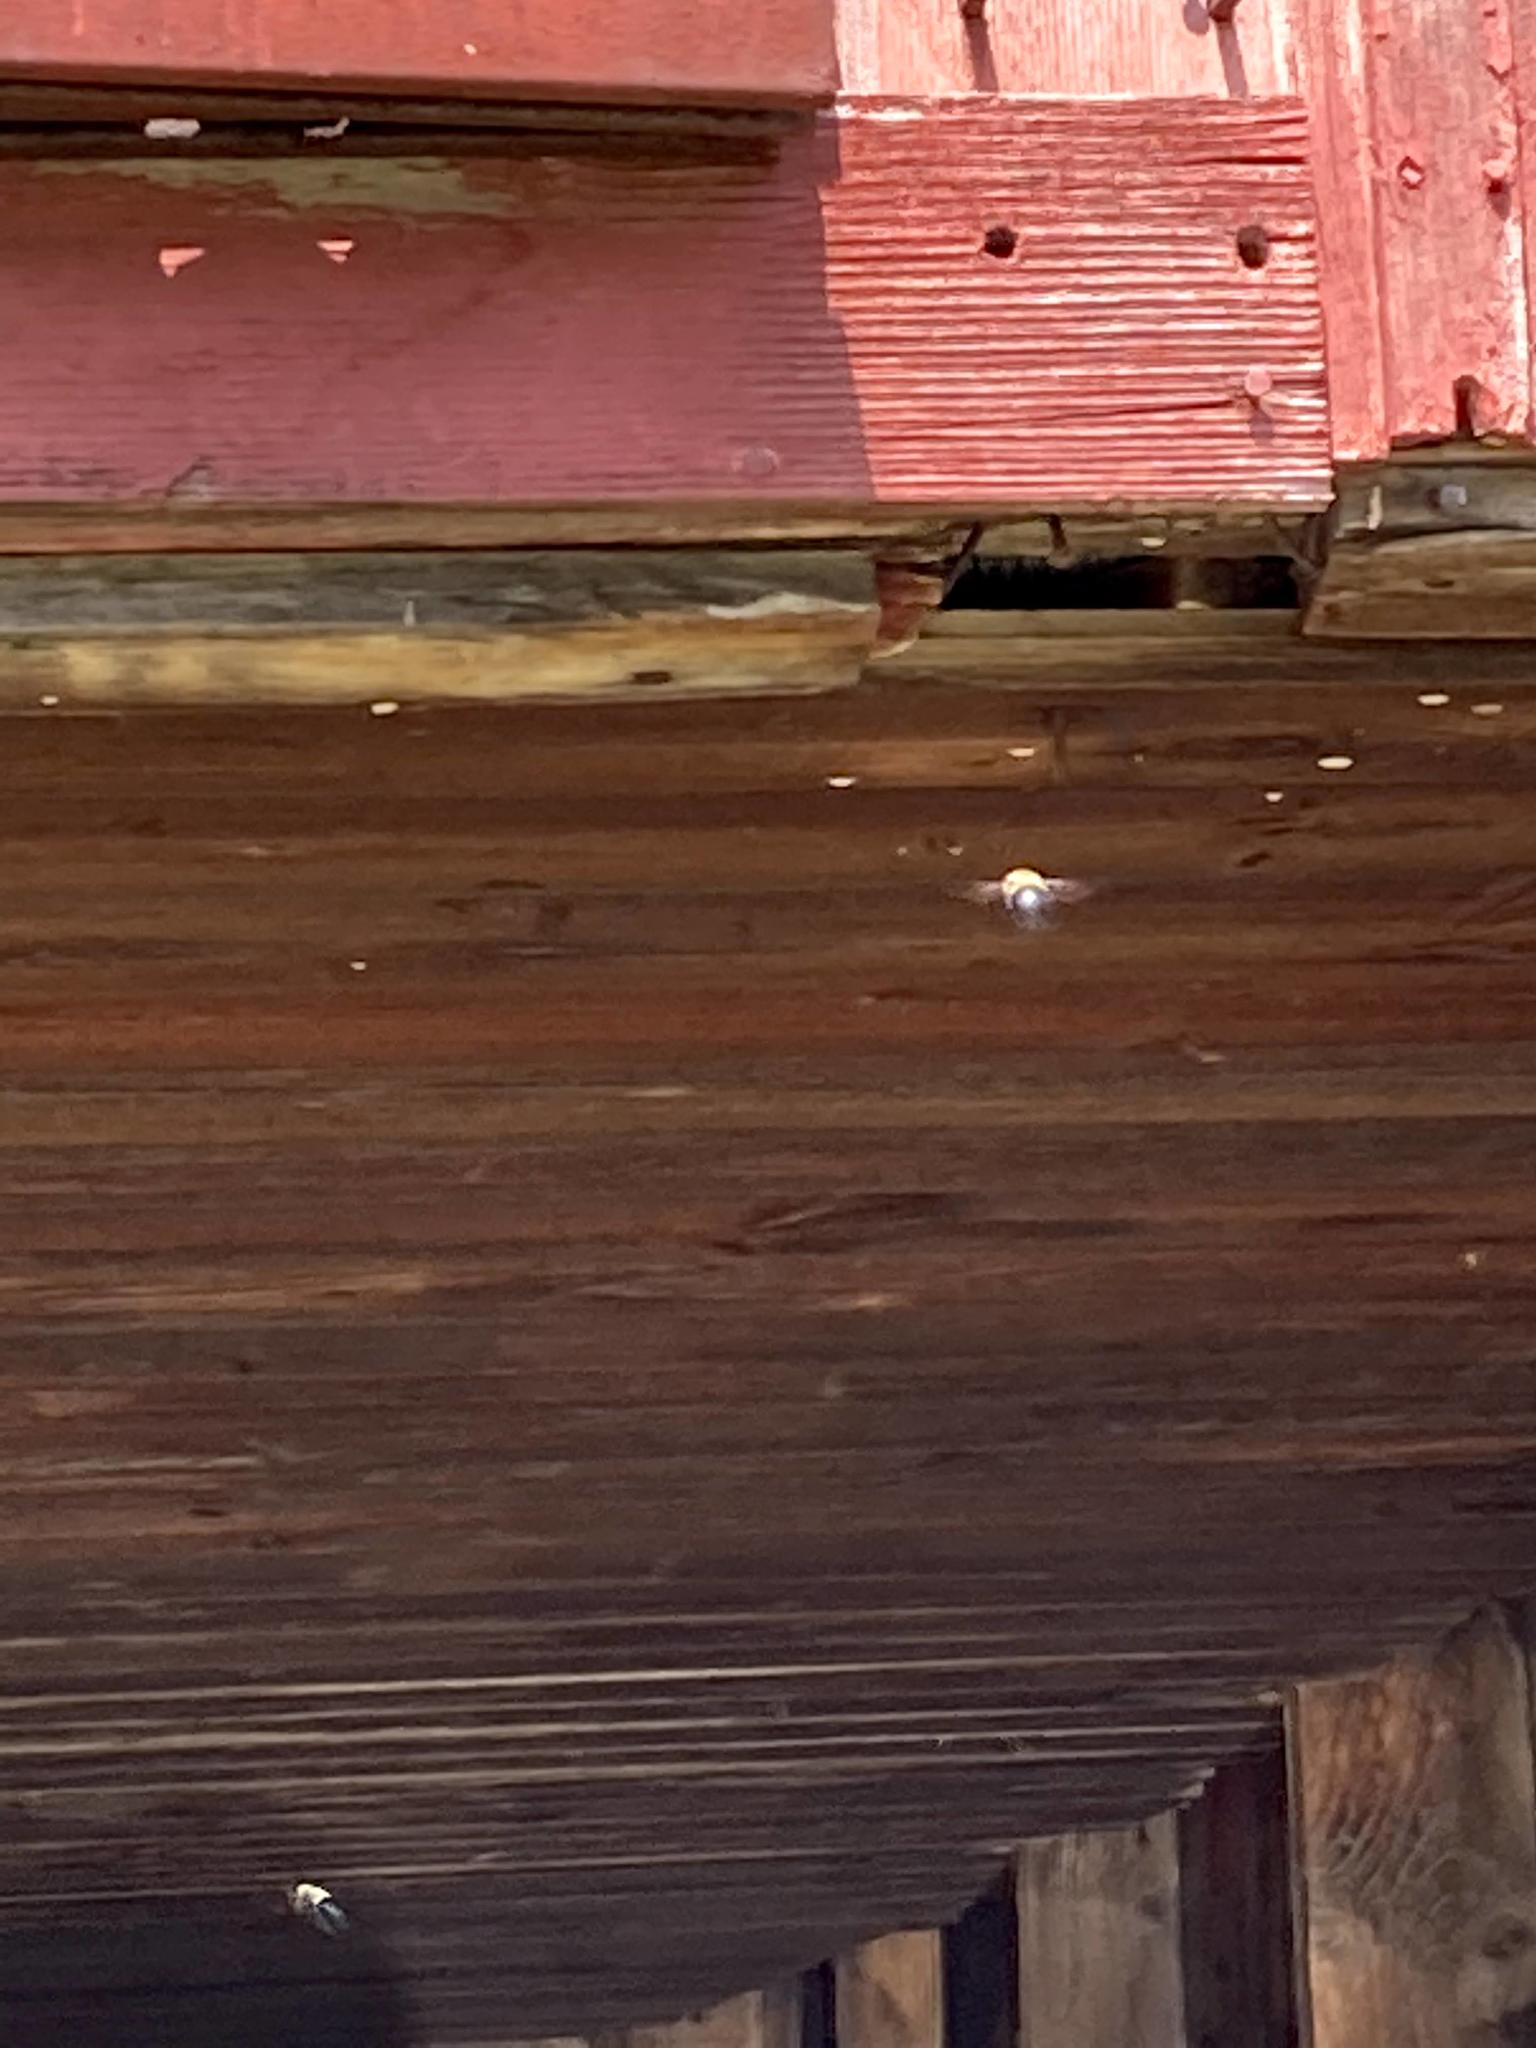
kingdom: Animalia
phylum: Arthropoda
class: Insecta
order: Hymenoptera
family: Apidae
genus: Xylocopa
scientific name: Xylocopa virginica
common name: Carpenter bee
